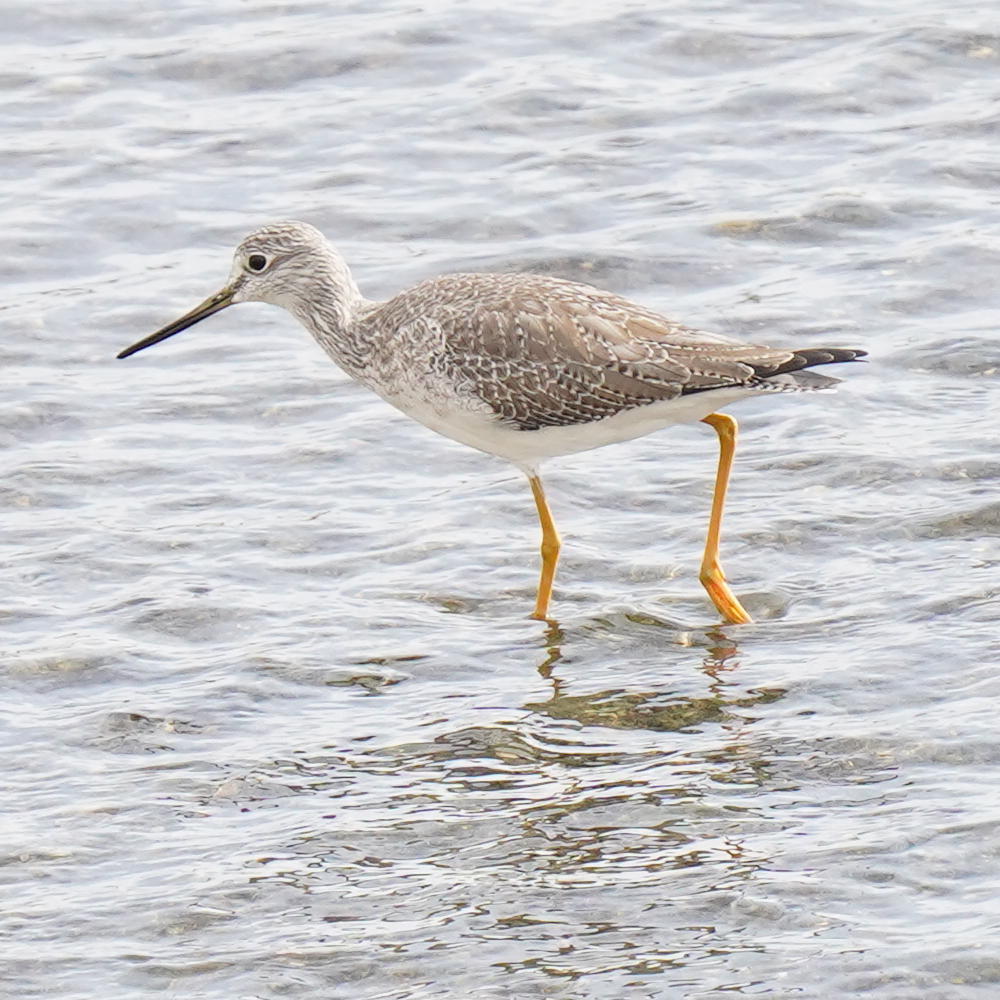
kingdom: Animalia
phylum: Chordata
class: Aves
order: Charadriiformes
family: Scolopacidae
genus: Tringa
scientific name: Tringa melanoleuca
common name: Greater yellowlegs
